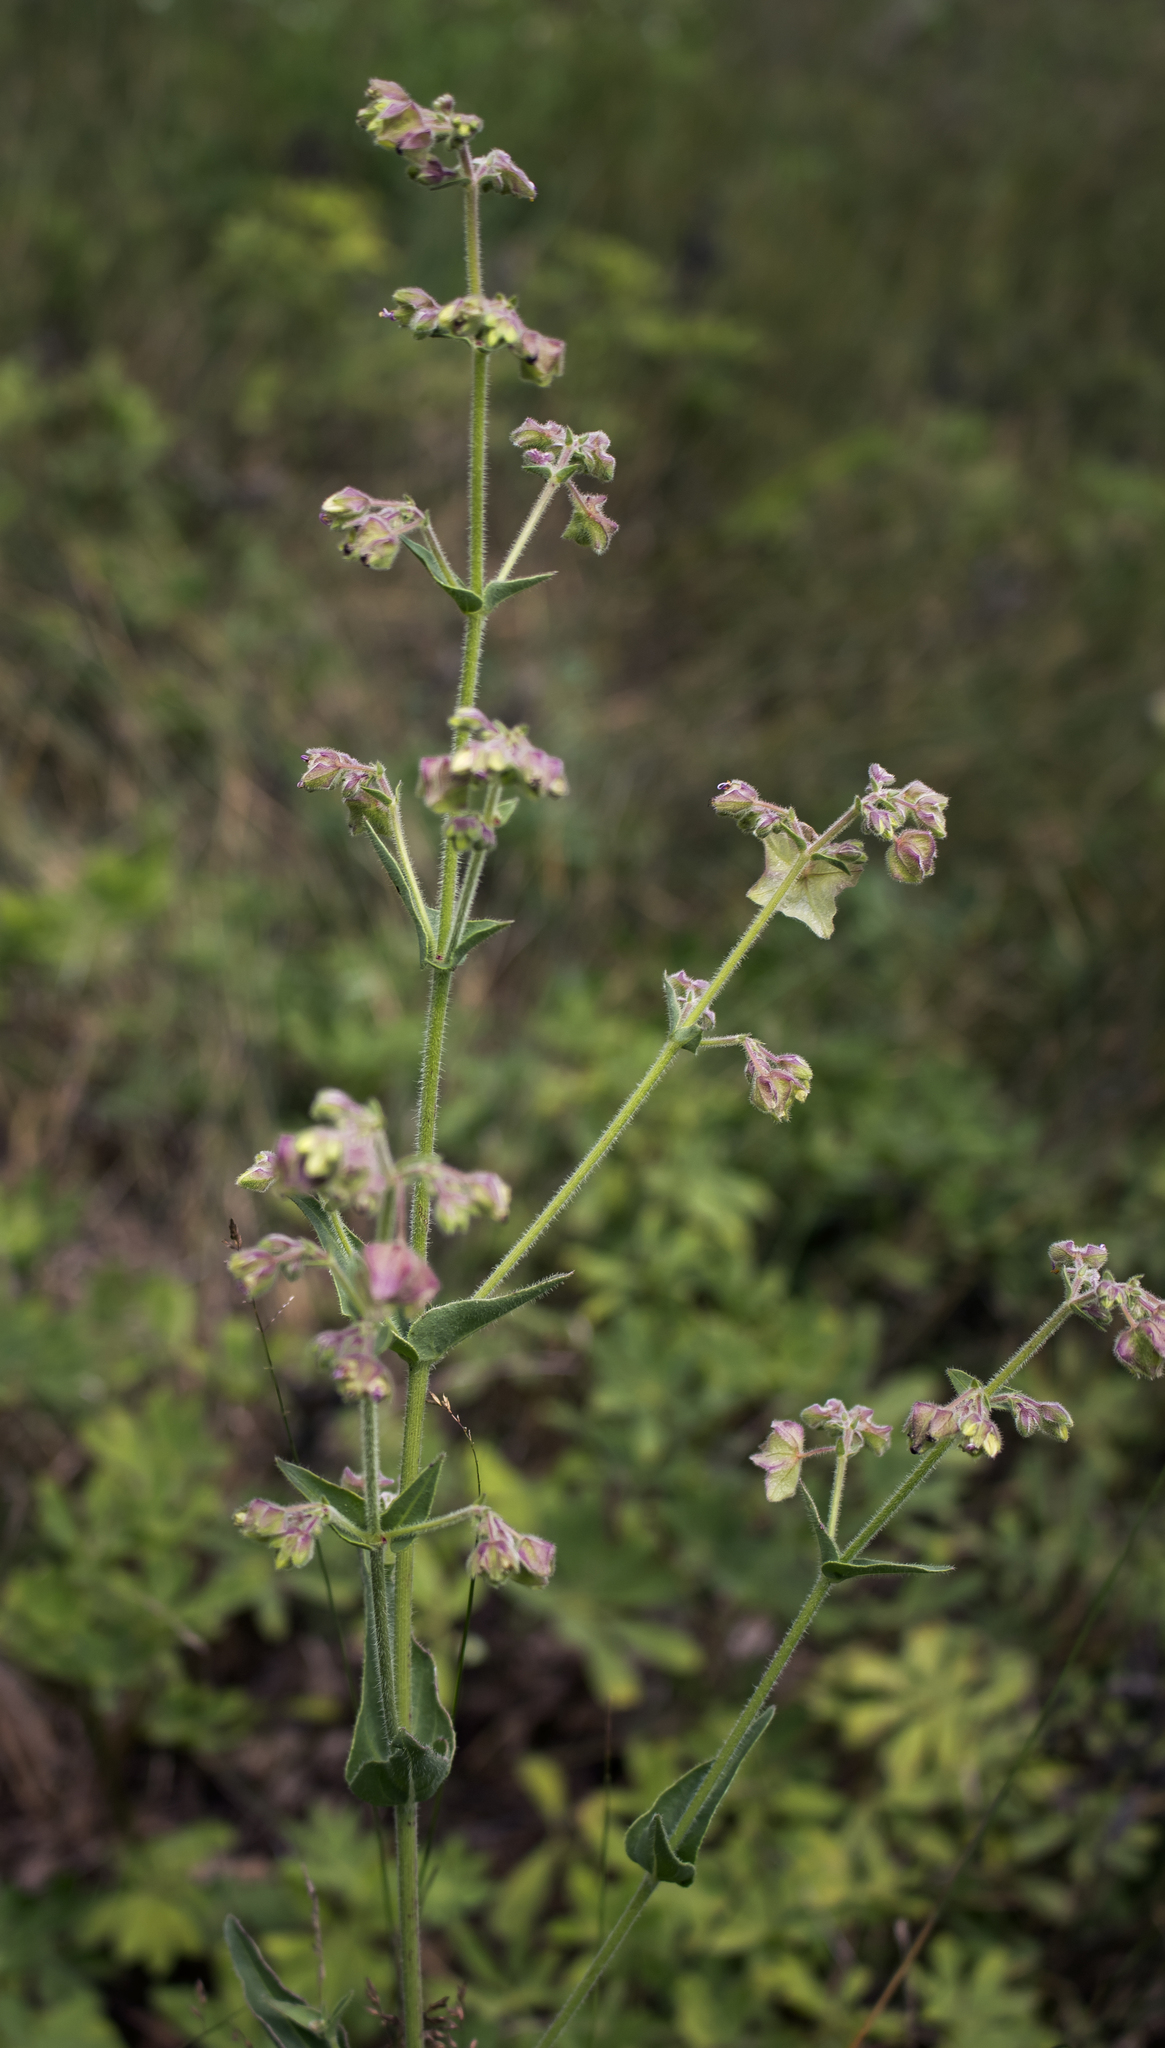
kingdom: Plantae
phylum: Tracheophyta
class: Magnoliopsida
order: Caryophyllales
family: Nyctaginaceae
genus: Mirabilis
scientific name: Mirabilis albida
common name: Hairy four-o'clock
